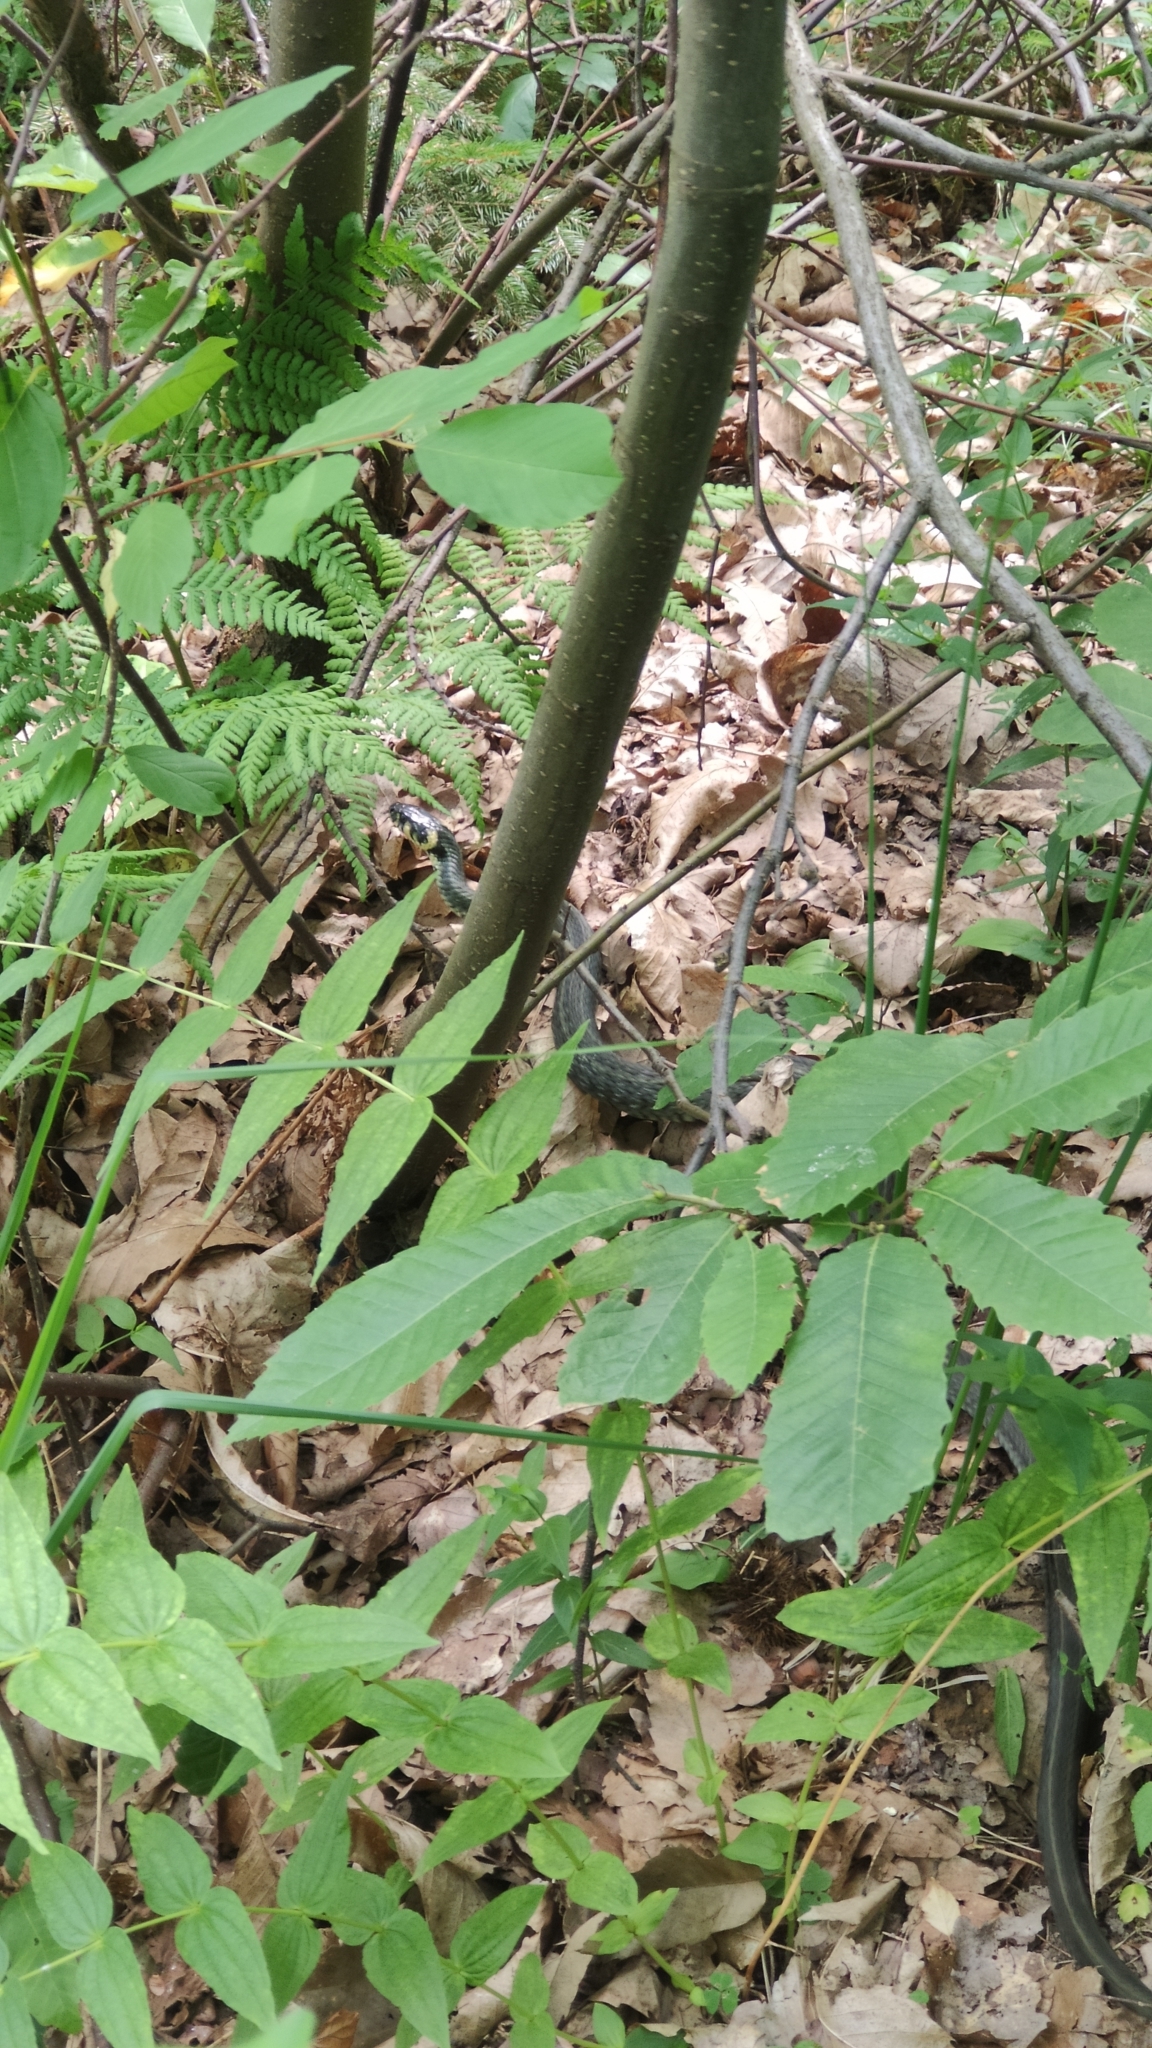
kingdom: Animalia
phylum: Chordata
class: Squamata
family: Colubridae
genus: Natrix
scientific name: Natrix natrix
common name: Grass snake
